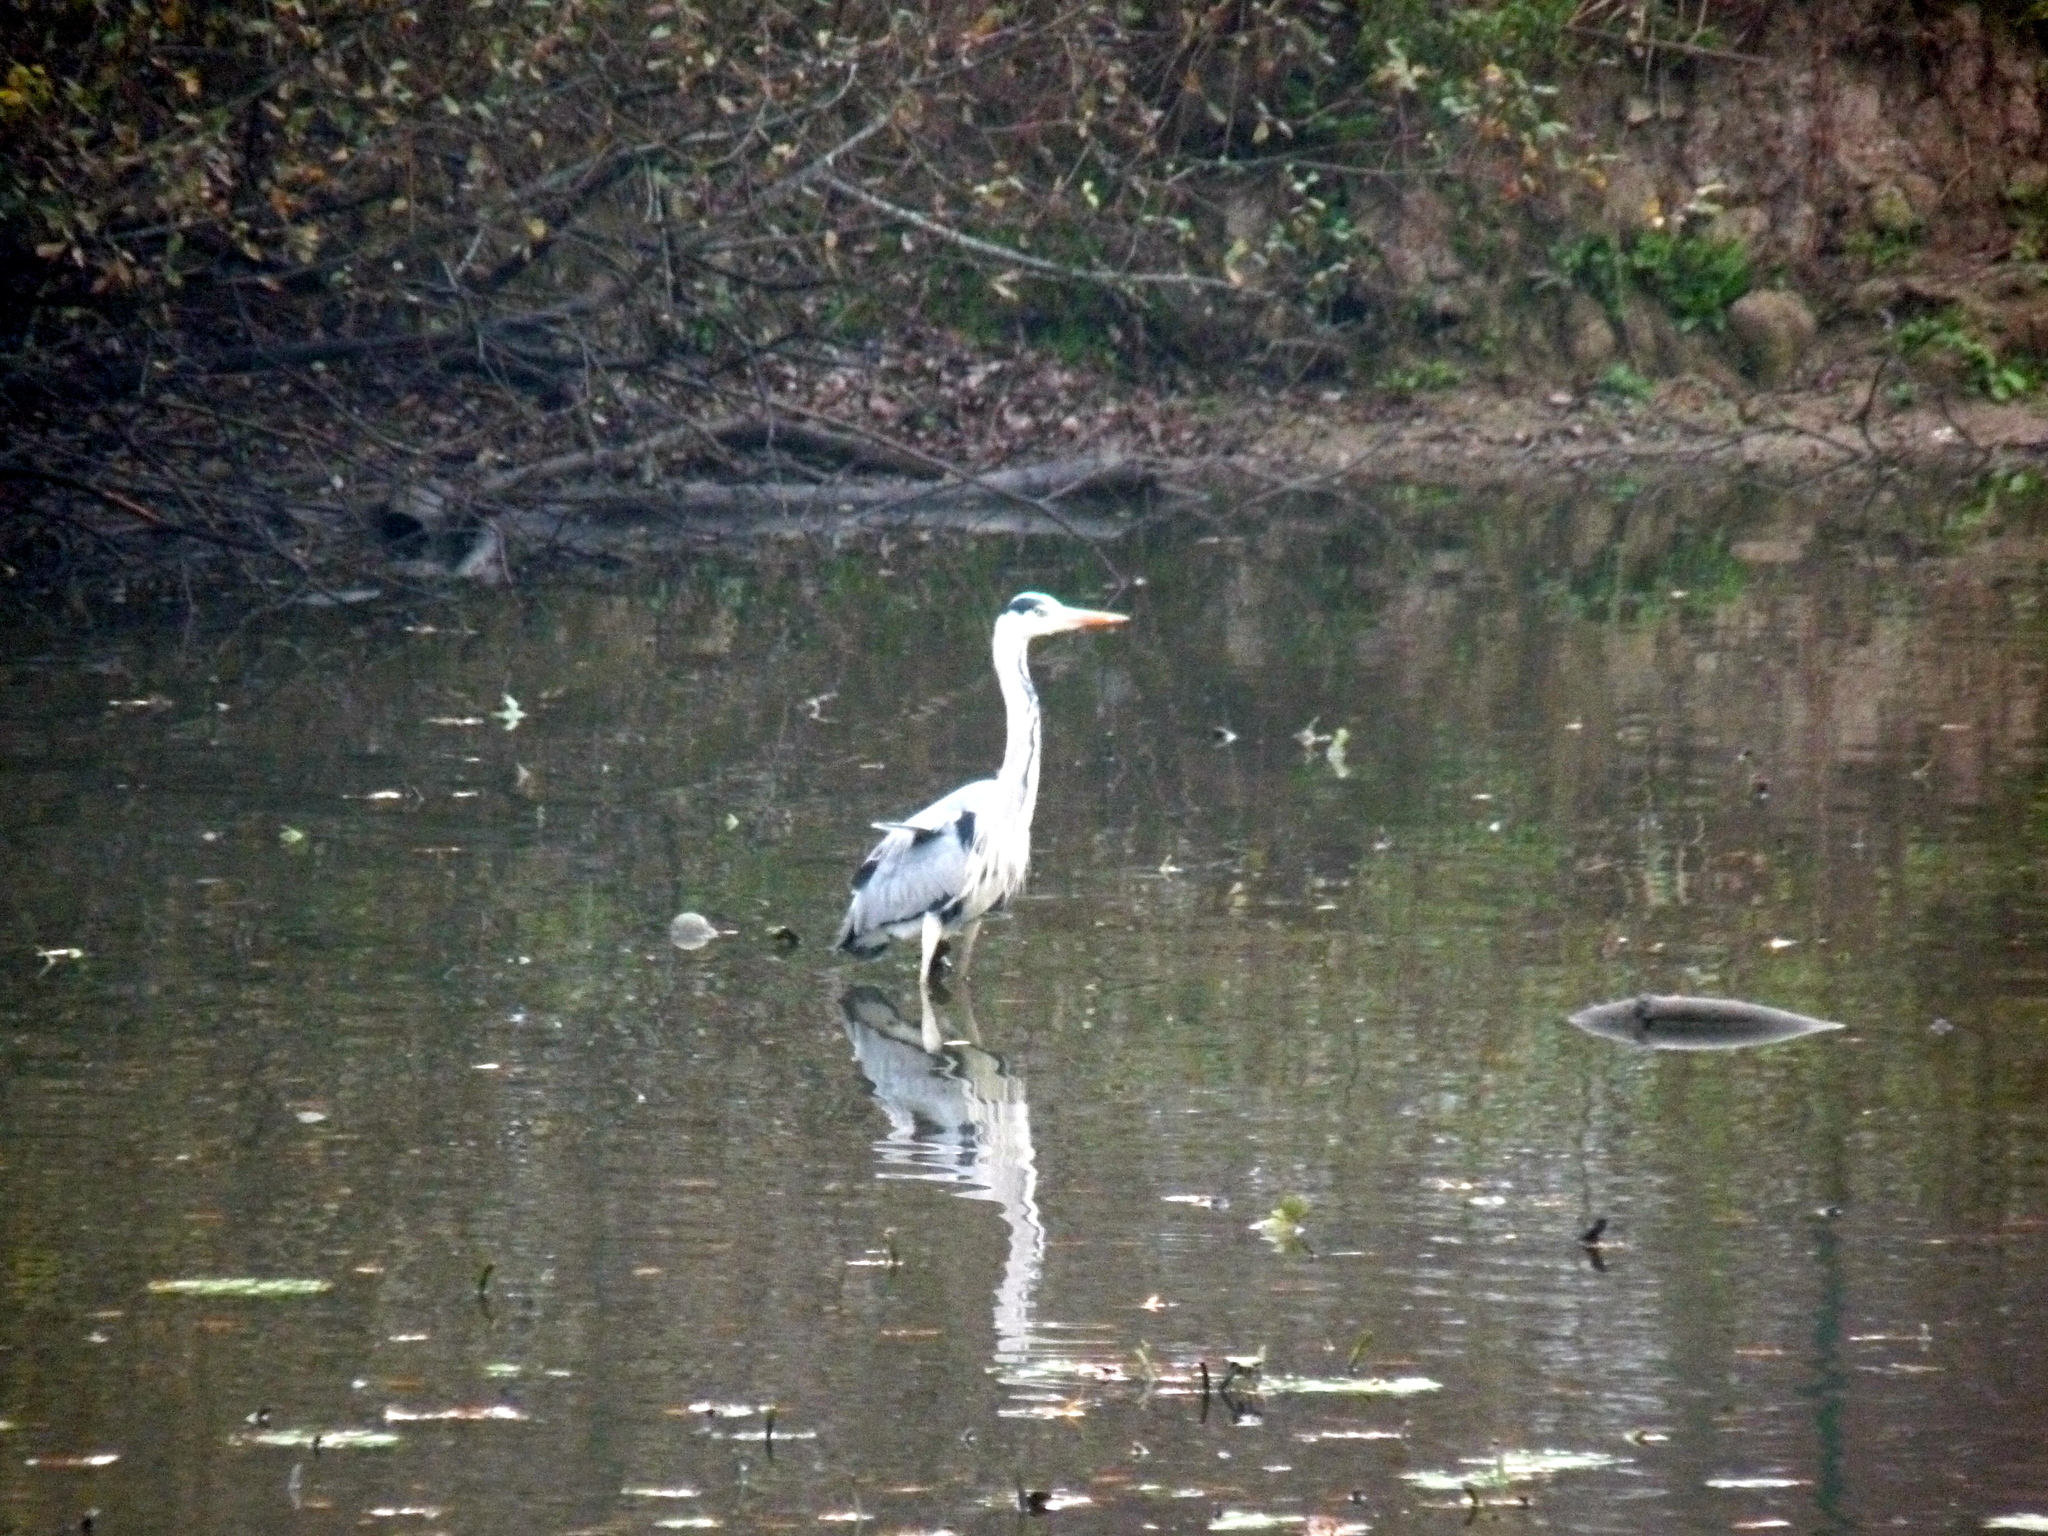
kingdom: Animalia
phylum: Chordata
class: Aves
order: Pelecaniformes
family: Ardeidae
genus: Ardea
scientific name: Ardea cinerea
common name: Grey heron
